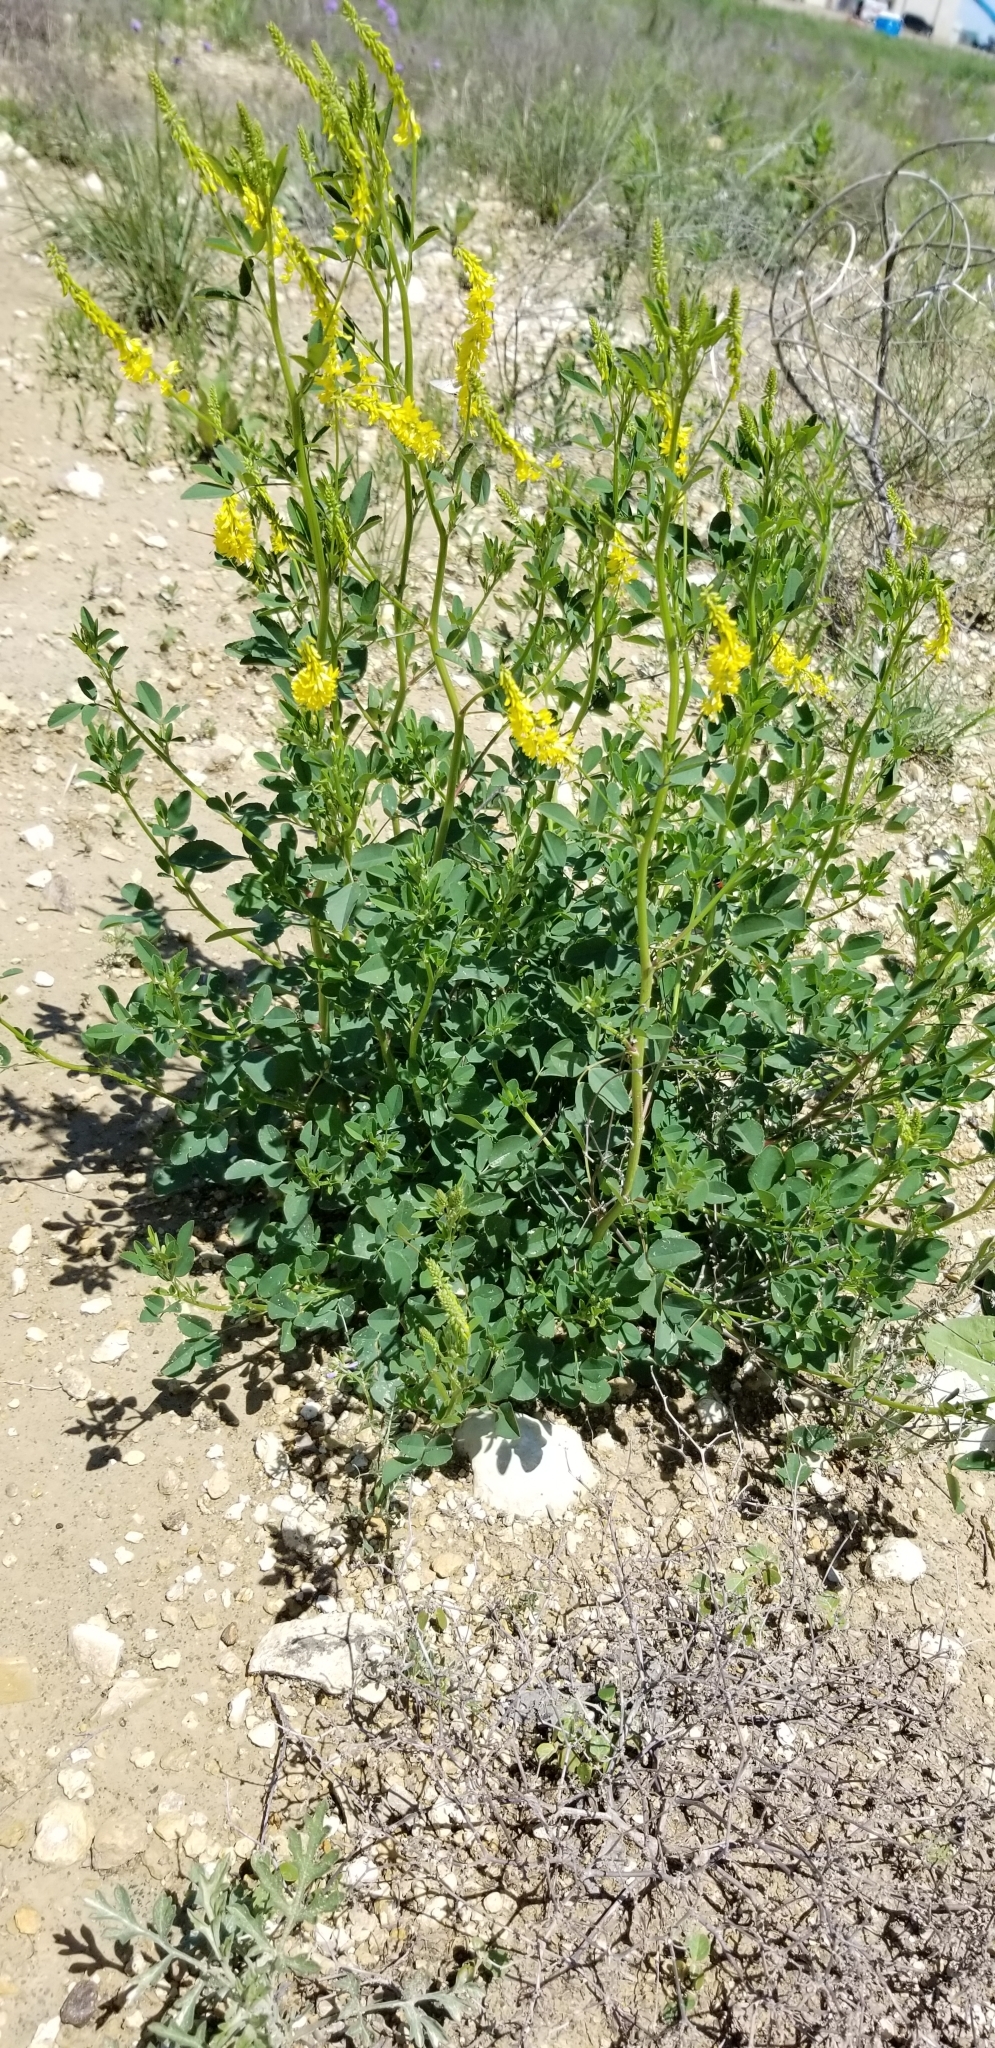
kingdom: Plantae
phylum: Tracheophyta
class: Magnoliopsida
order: Fabales
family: Fabaceae
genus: Melilotus
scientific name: Melilotus officinalis
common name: Sweetclover
